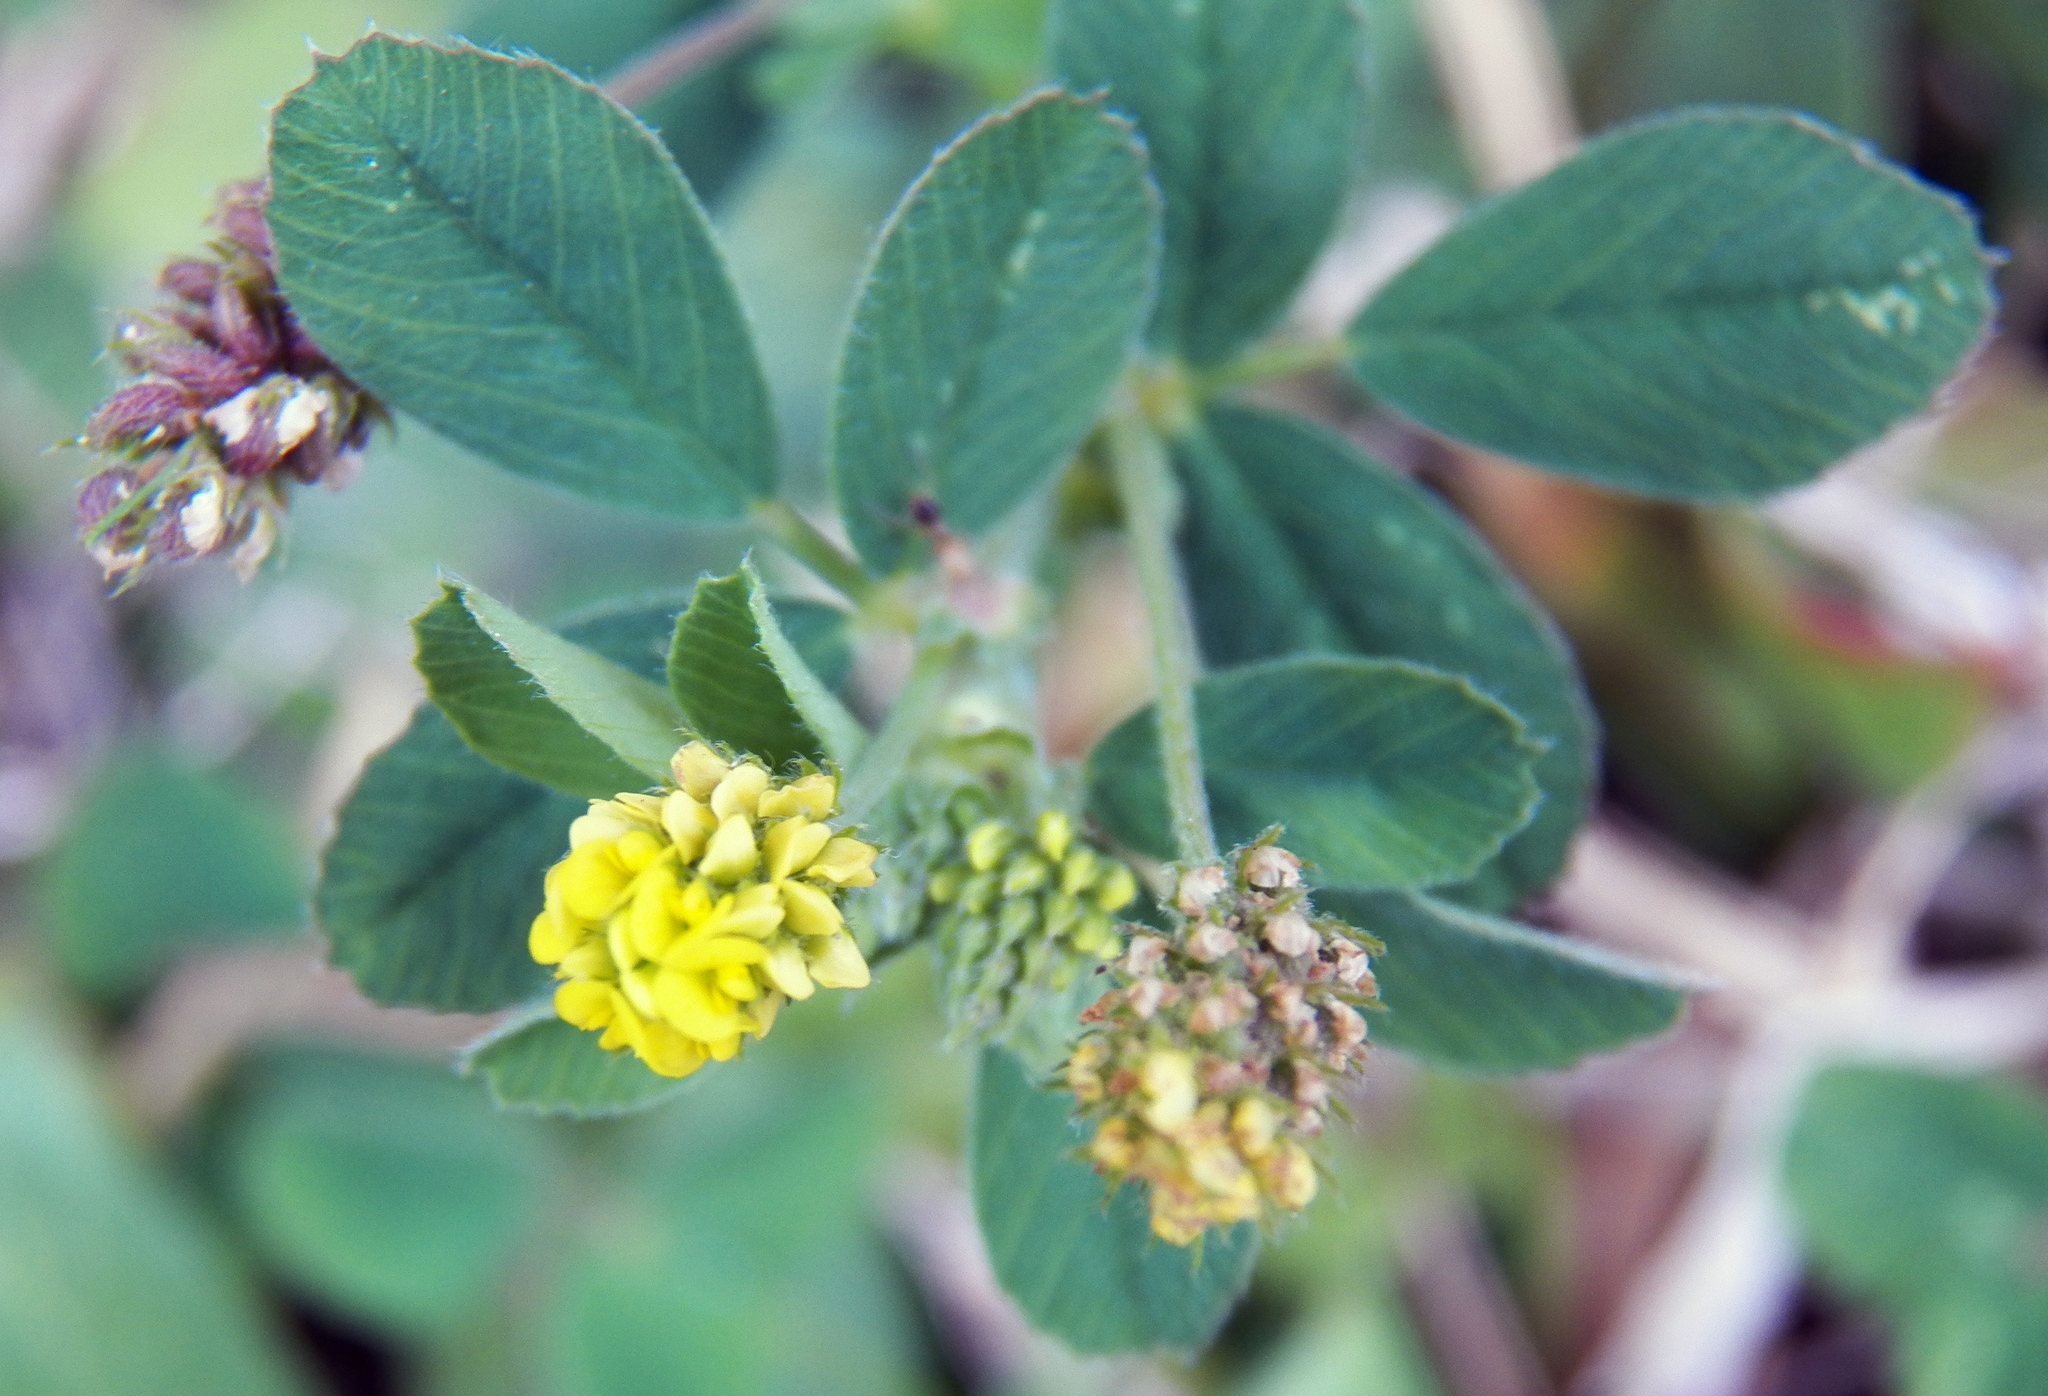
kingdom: Plantae
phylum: Tracheophyta
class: Magnoliopsida
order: Fabales
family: Fabaceae
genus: Medicago
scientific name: Medicago lupulina
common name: Black medick
